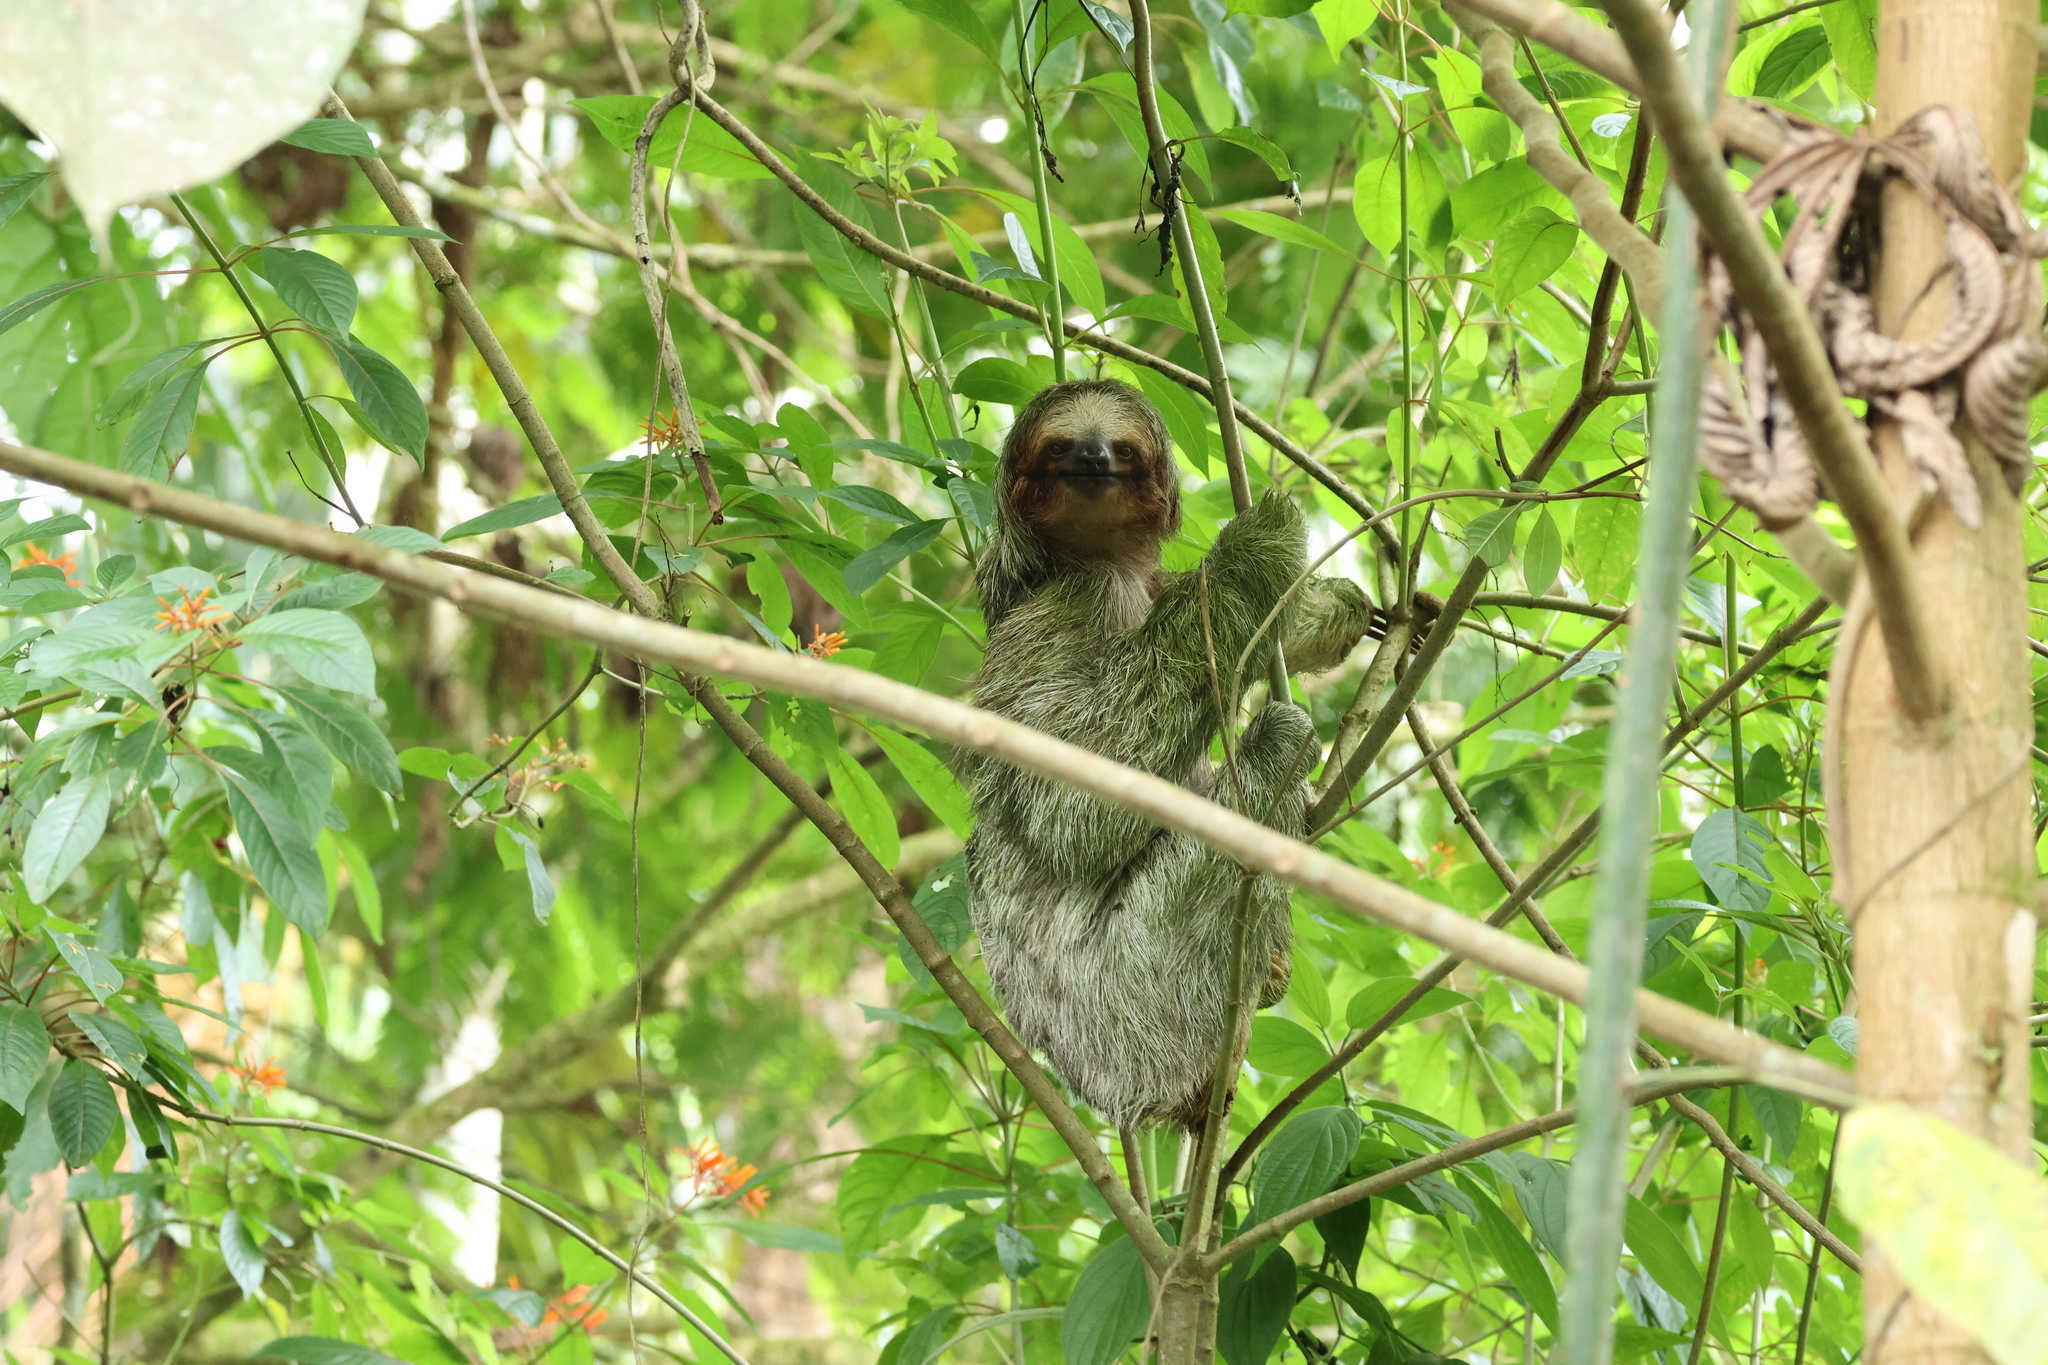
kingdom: Animalia
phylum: Chordata
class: Mammalia
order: Pilosa
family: Bradypodidae
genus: Bradypus
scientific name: Bradypus variegatus
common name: Brown-throated three-toed sloth
